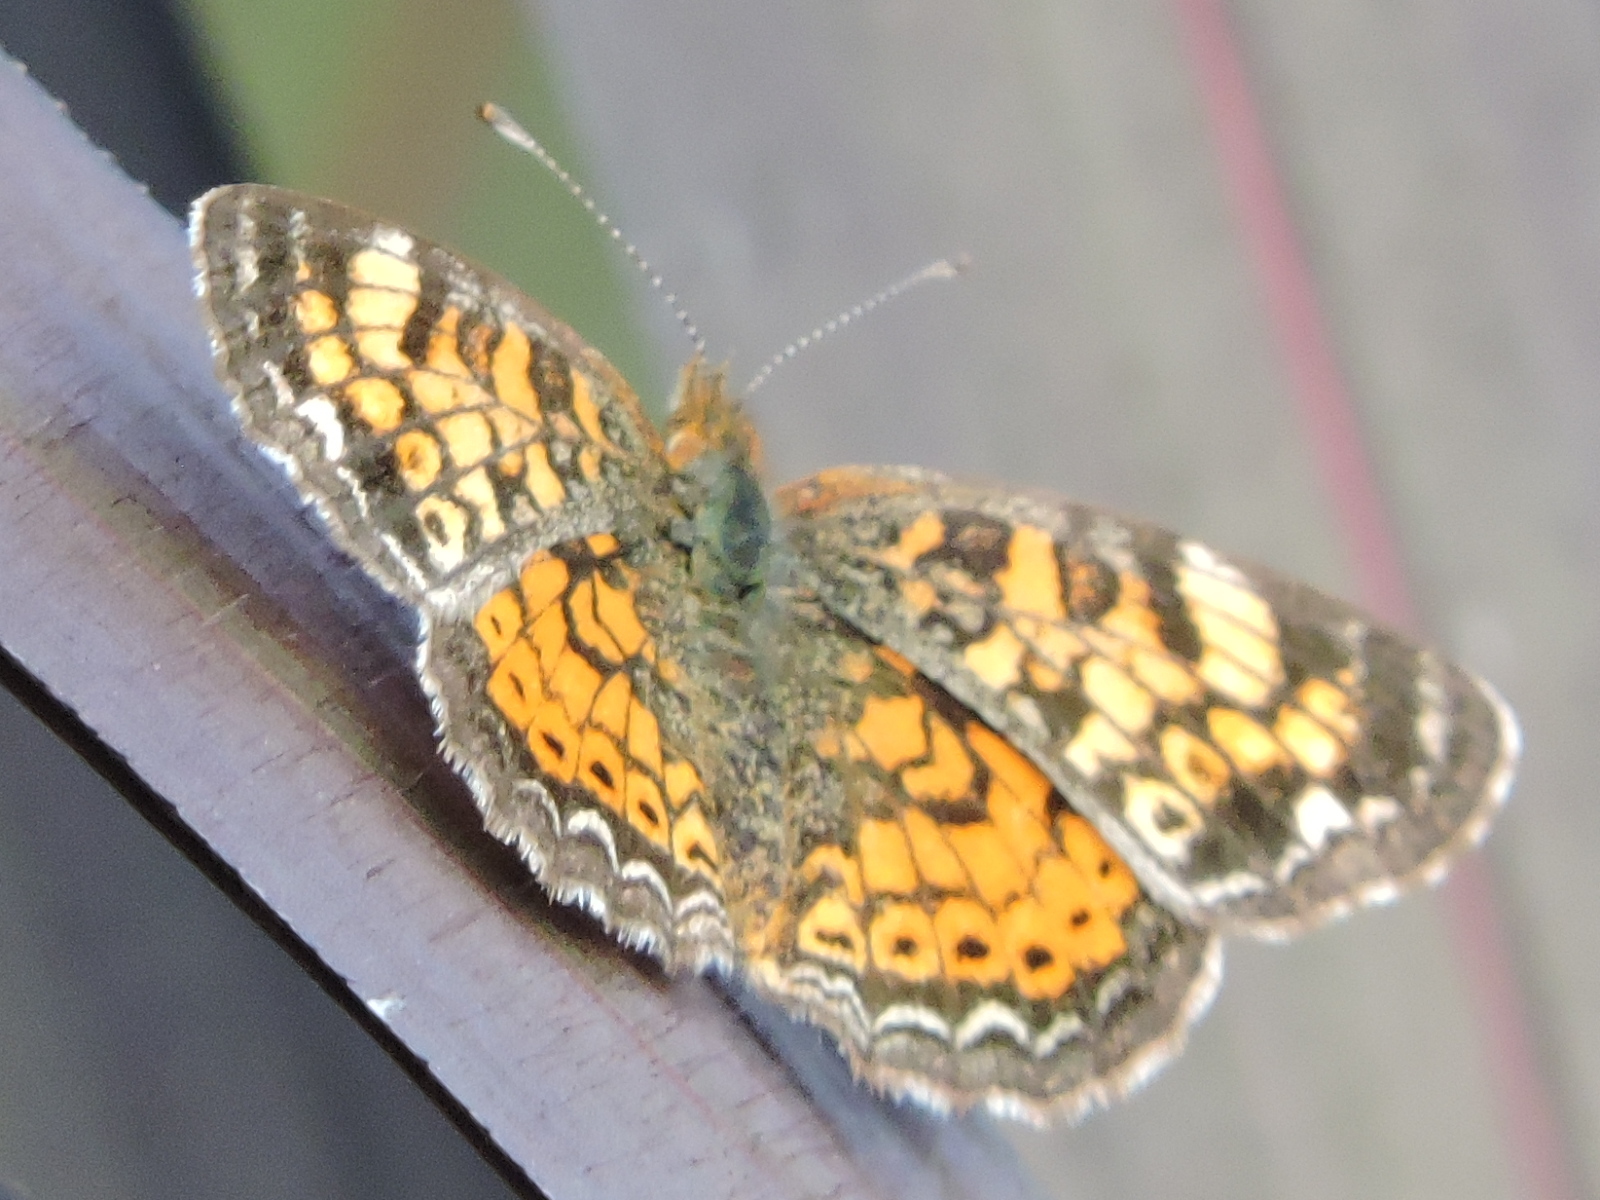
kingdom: Animalia
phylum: Arthropoda
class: Insecta
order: Lepidoptera
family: Nymphalidae
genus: Phyciodes
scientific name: Phyciodes tharos
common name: Pearl crescent
